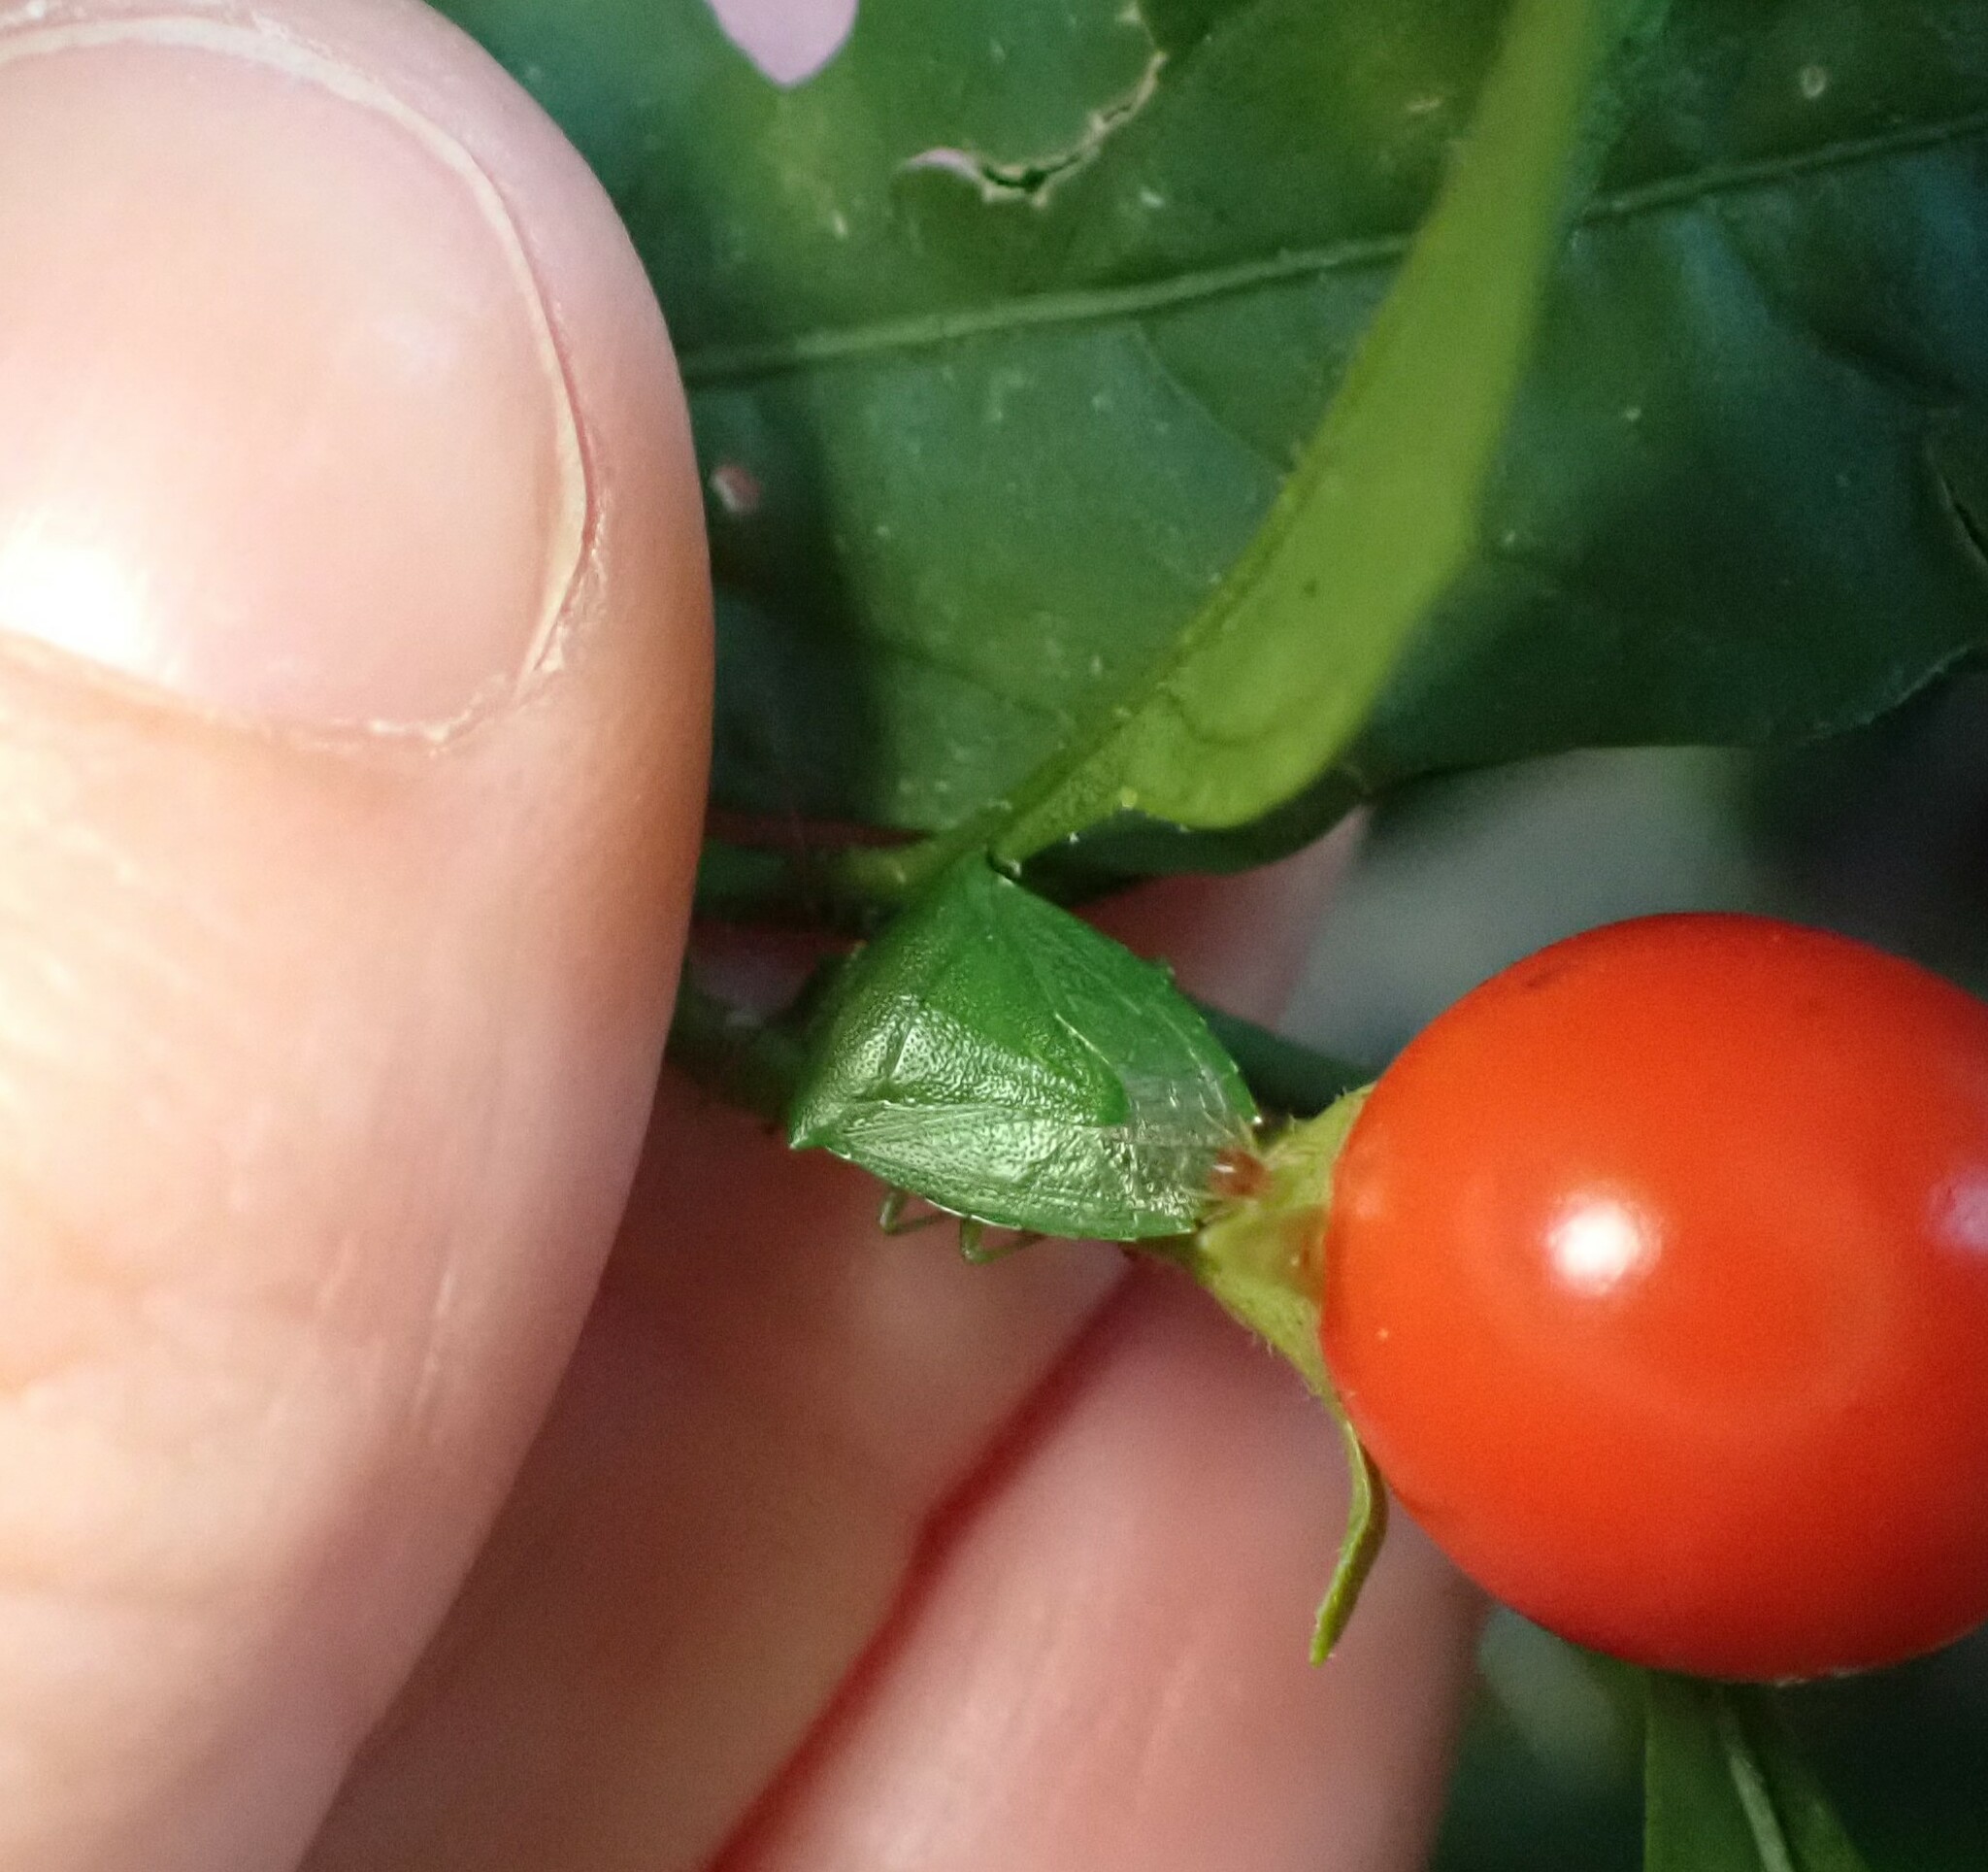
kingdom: Animalia
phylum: Arthropoda
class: Insecta
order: Hemiptera
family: Pentatomidae
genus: Cuspicona
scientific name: Cuspicona simplex
